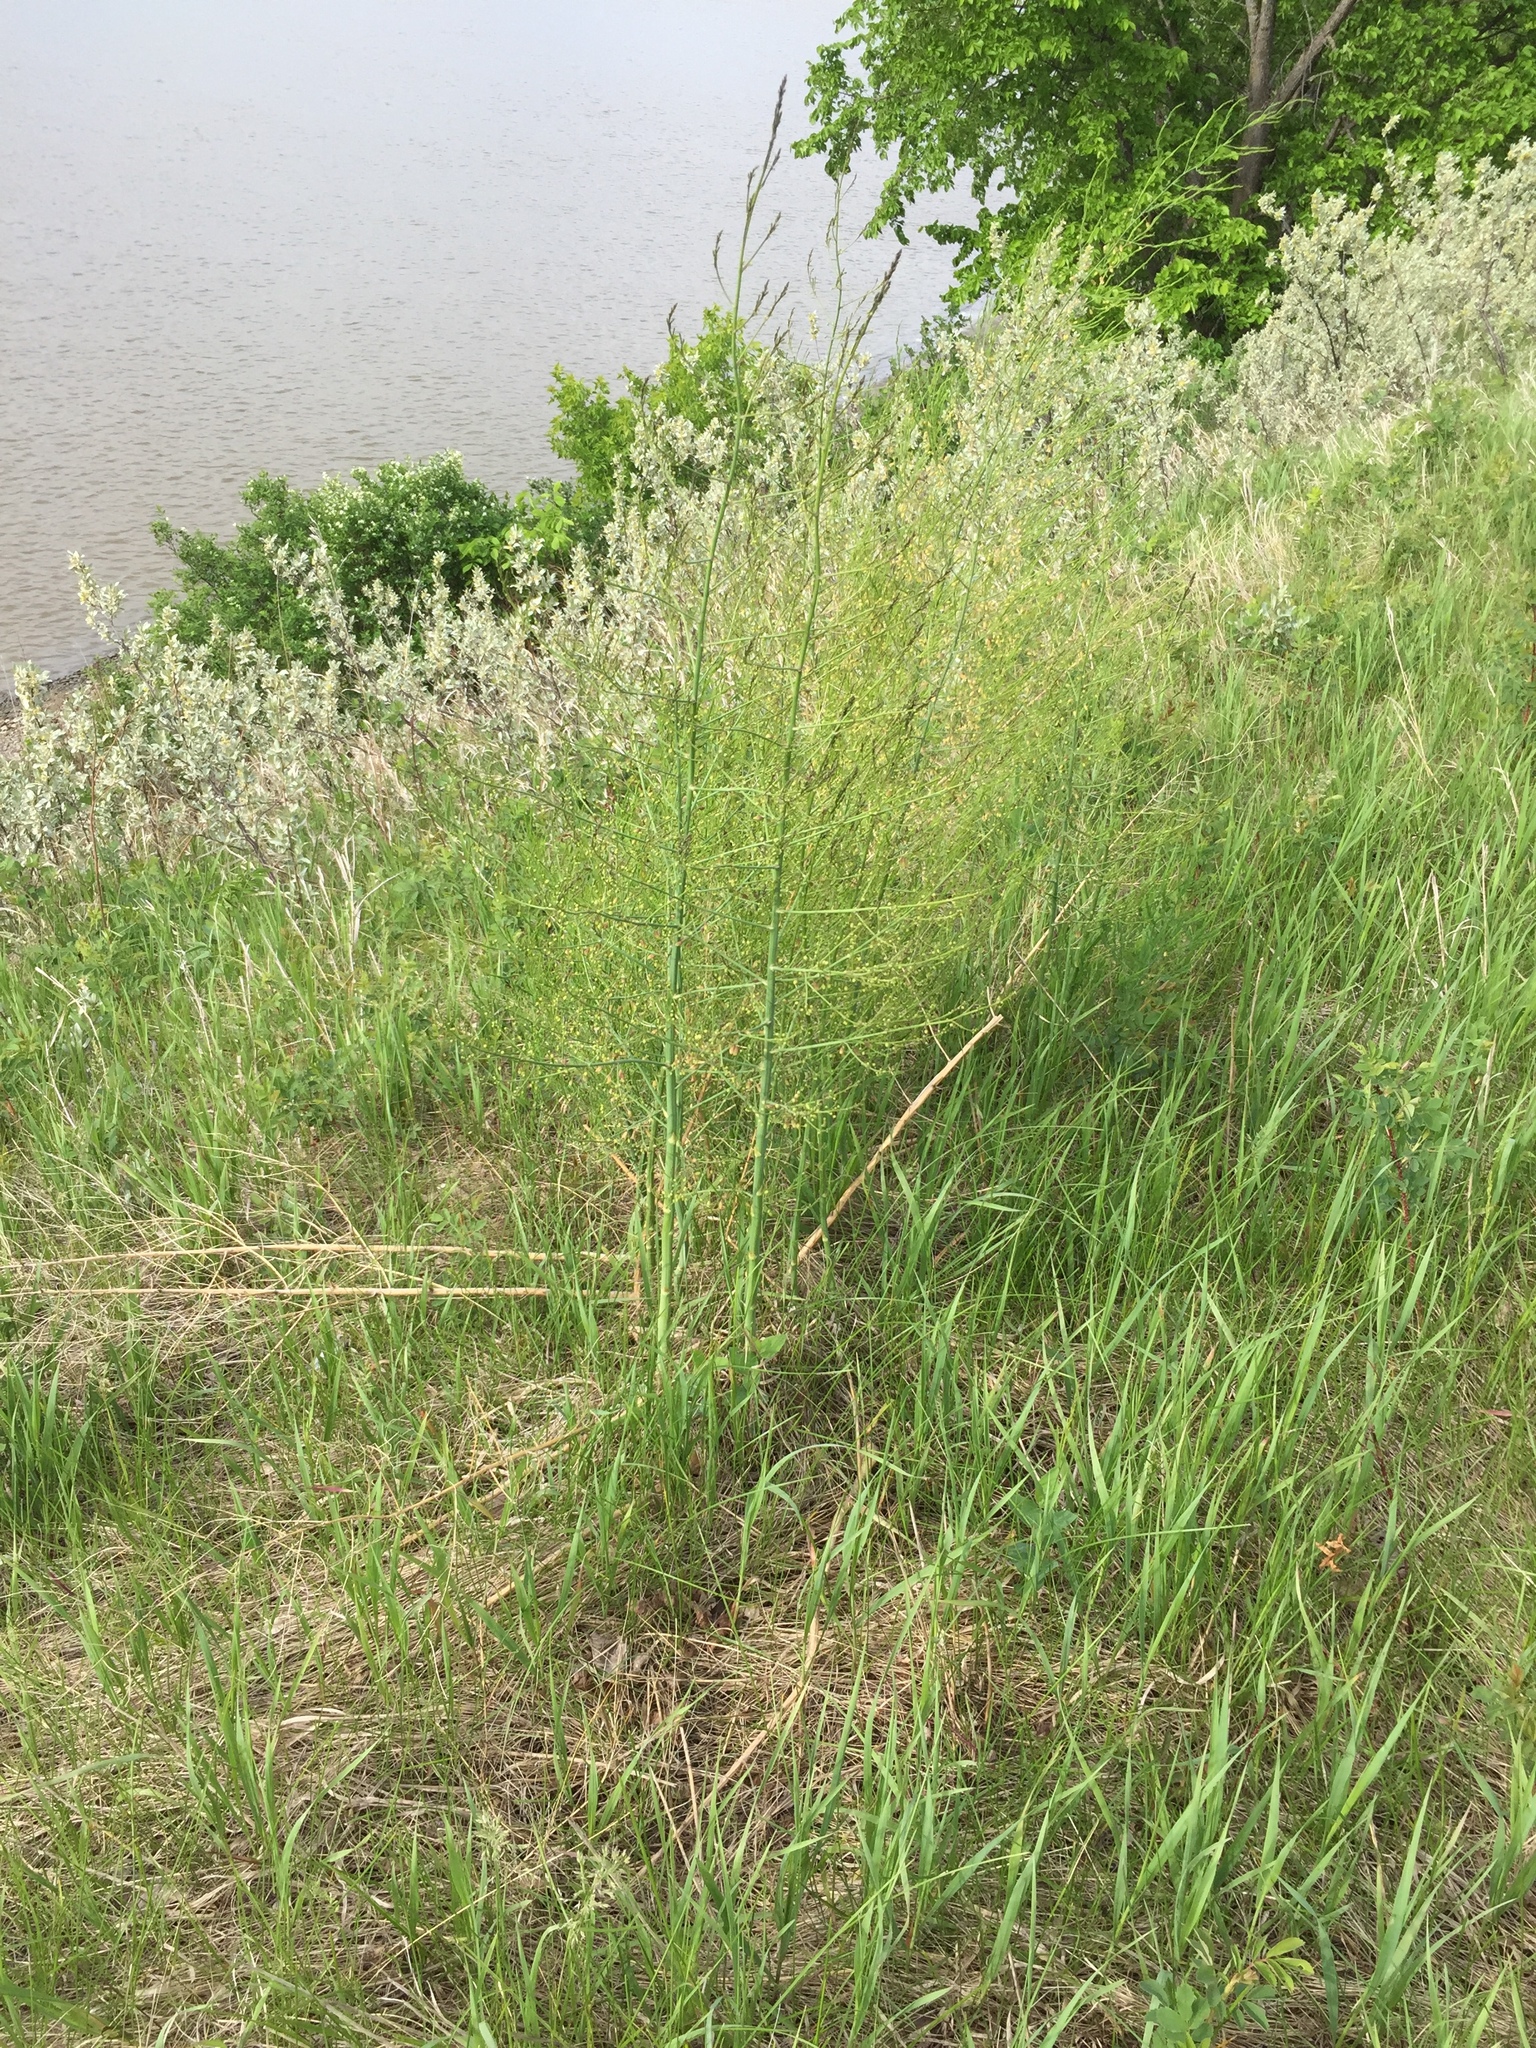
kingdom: Plantae
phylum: Tracheophyta
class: Liliopsida
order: Asparagales
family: Asparagaceae
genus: Asparagus
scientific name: Asparagus officinalis
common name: Garden asparagus
